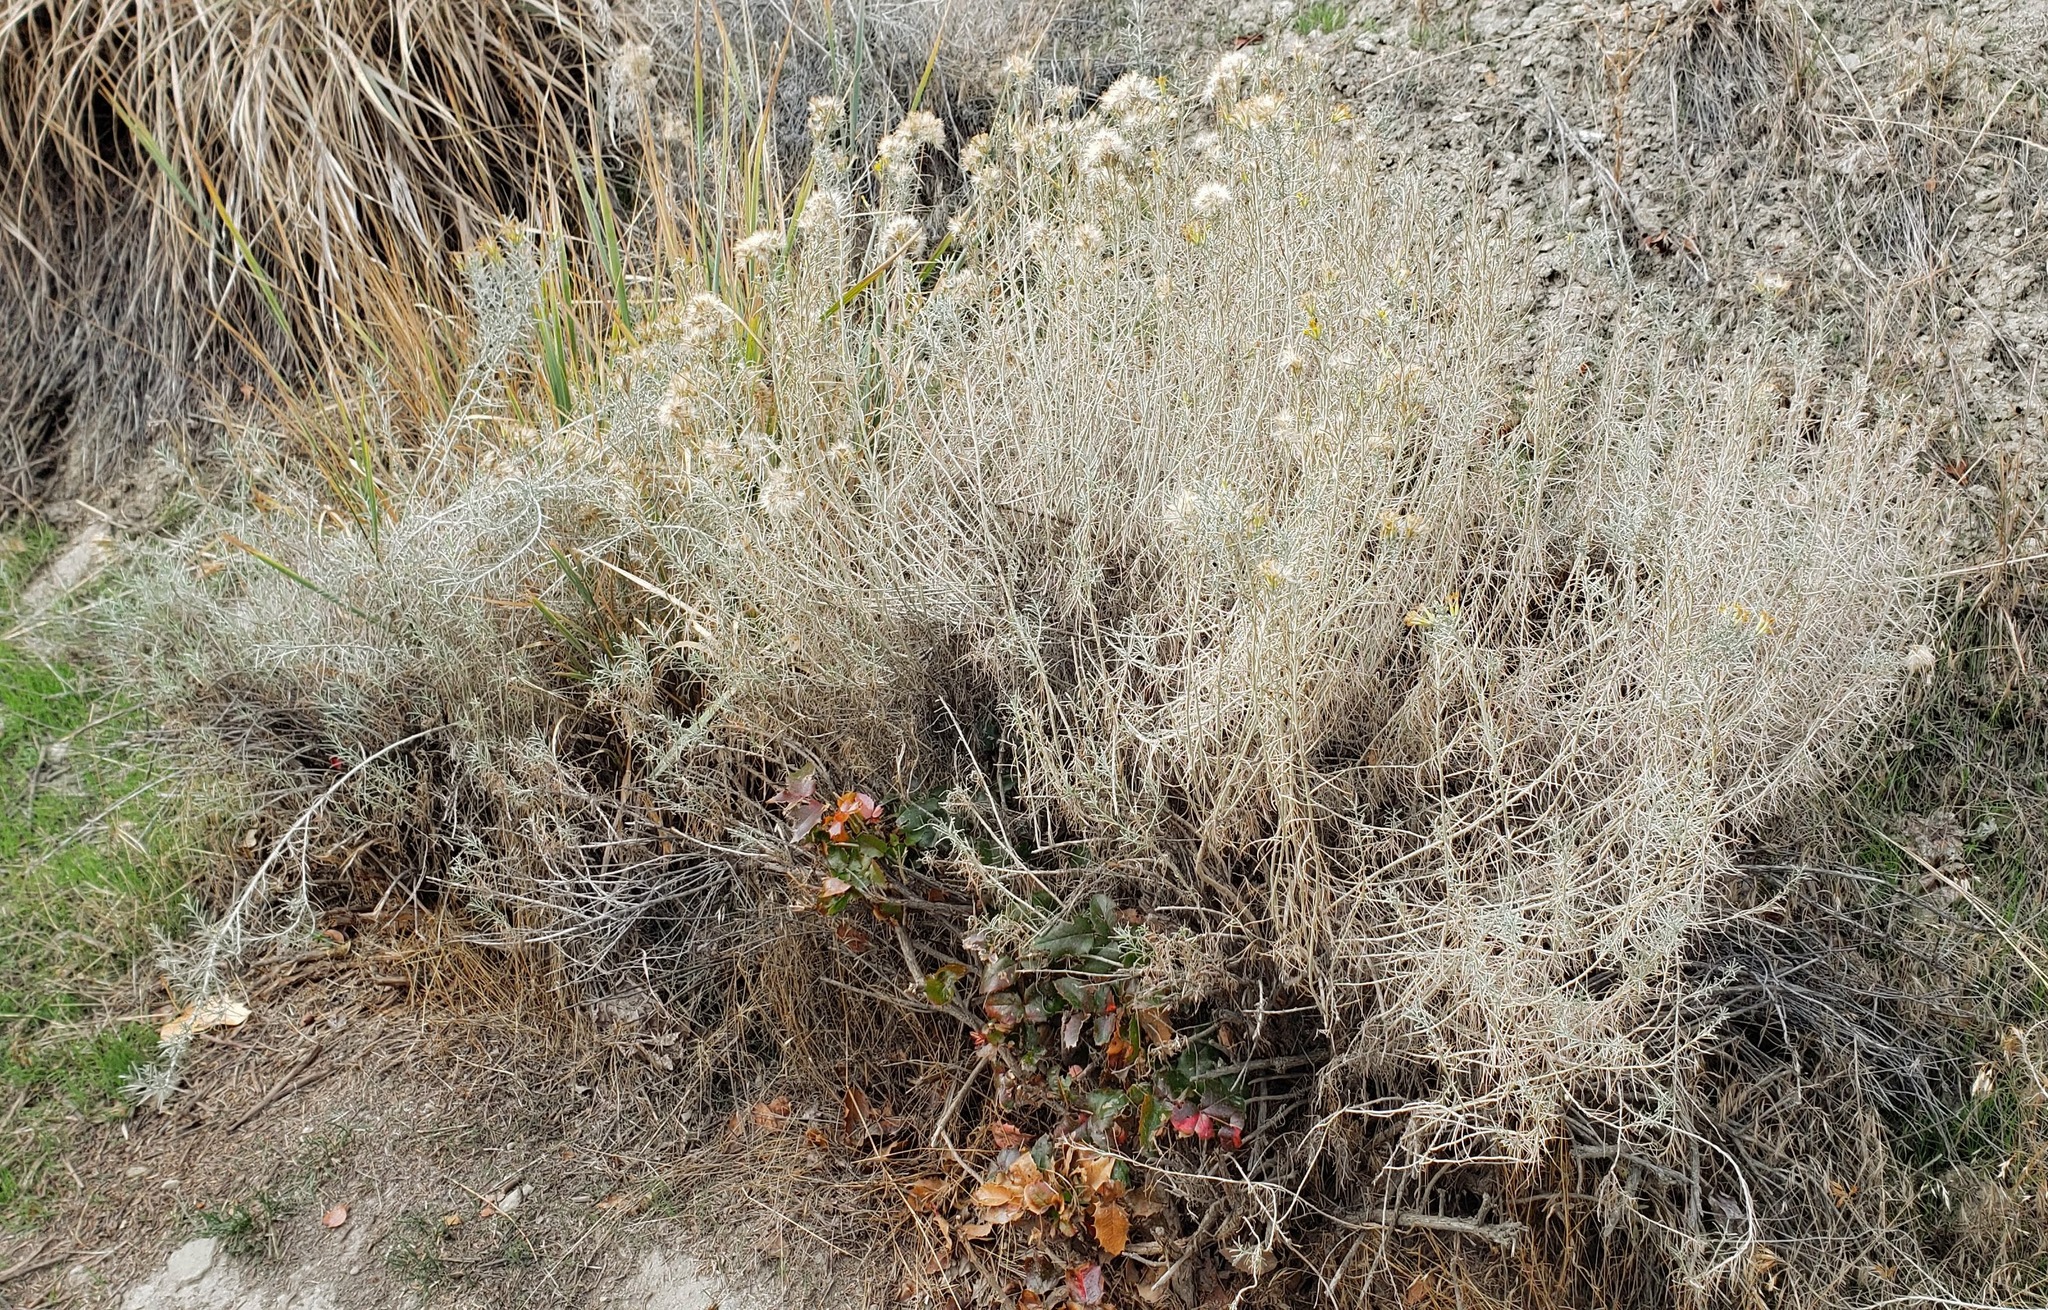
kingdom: Plantae
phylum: Tracheophyta
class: Magnoliopsida
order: Asterales
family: Asteraceae
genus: Ericameria
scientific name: Ericameria nauseosa
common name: Rubber rabbitbrush
